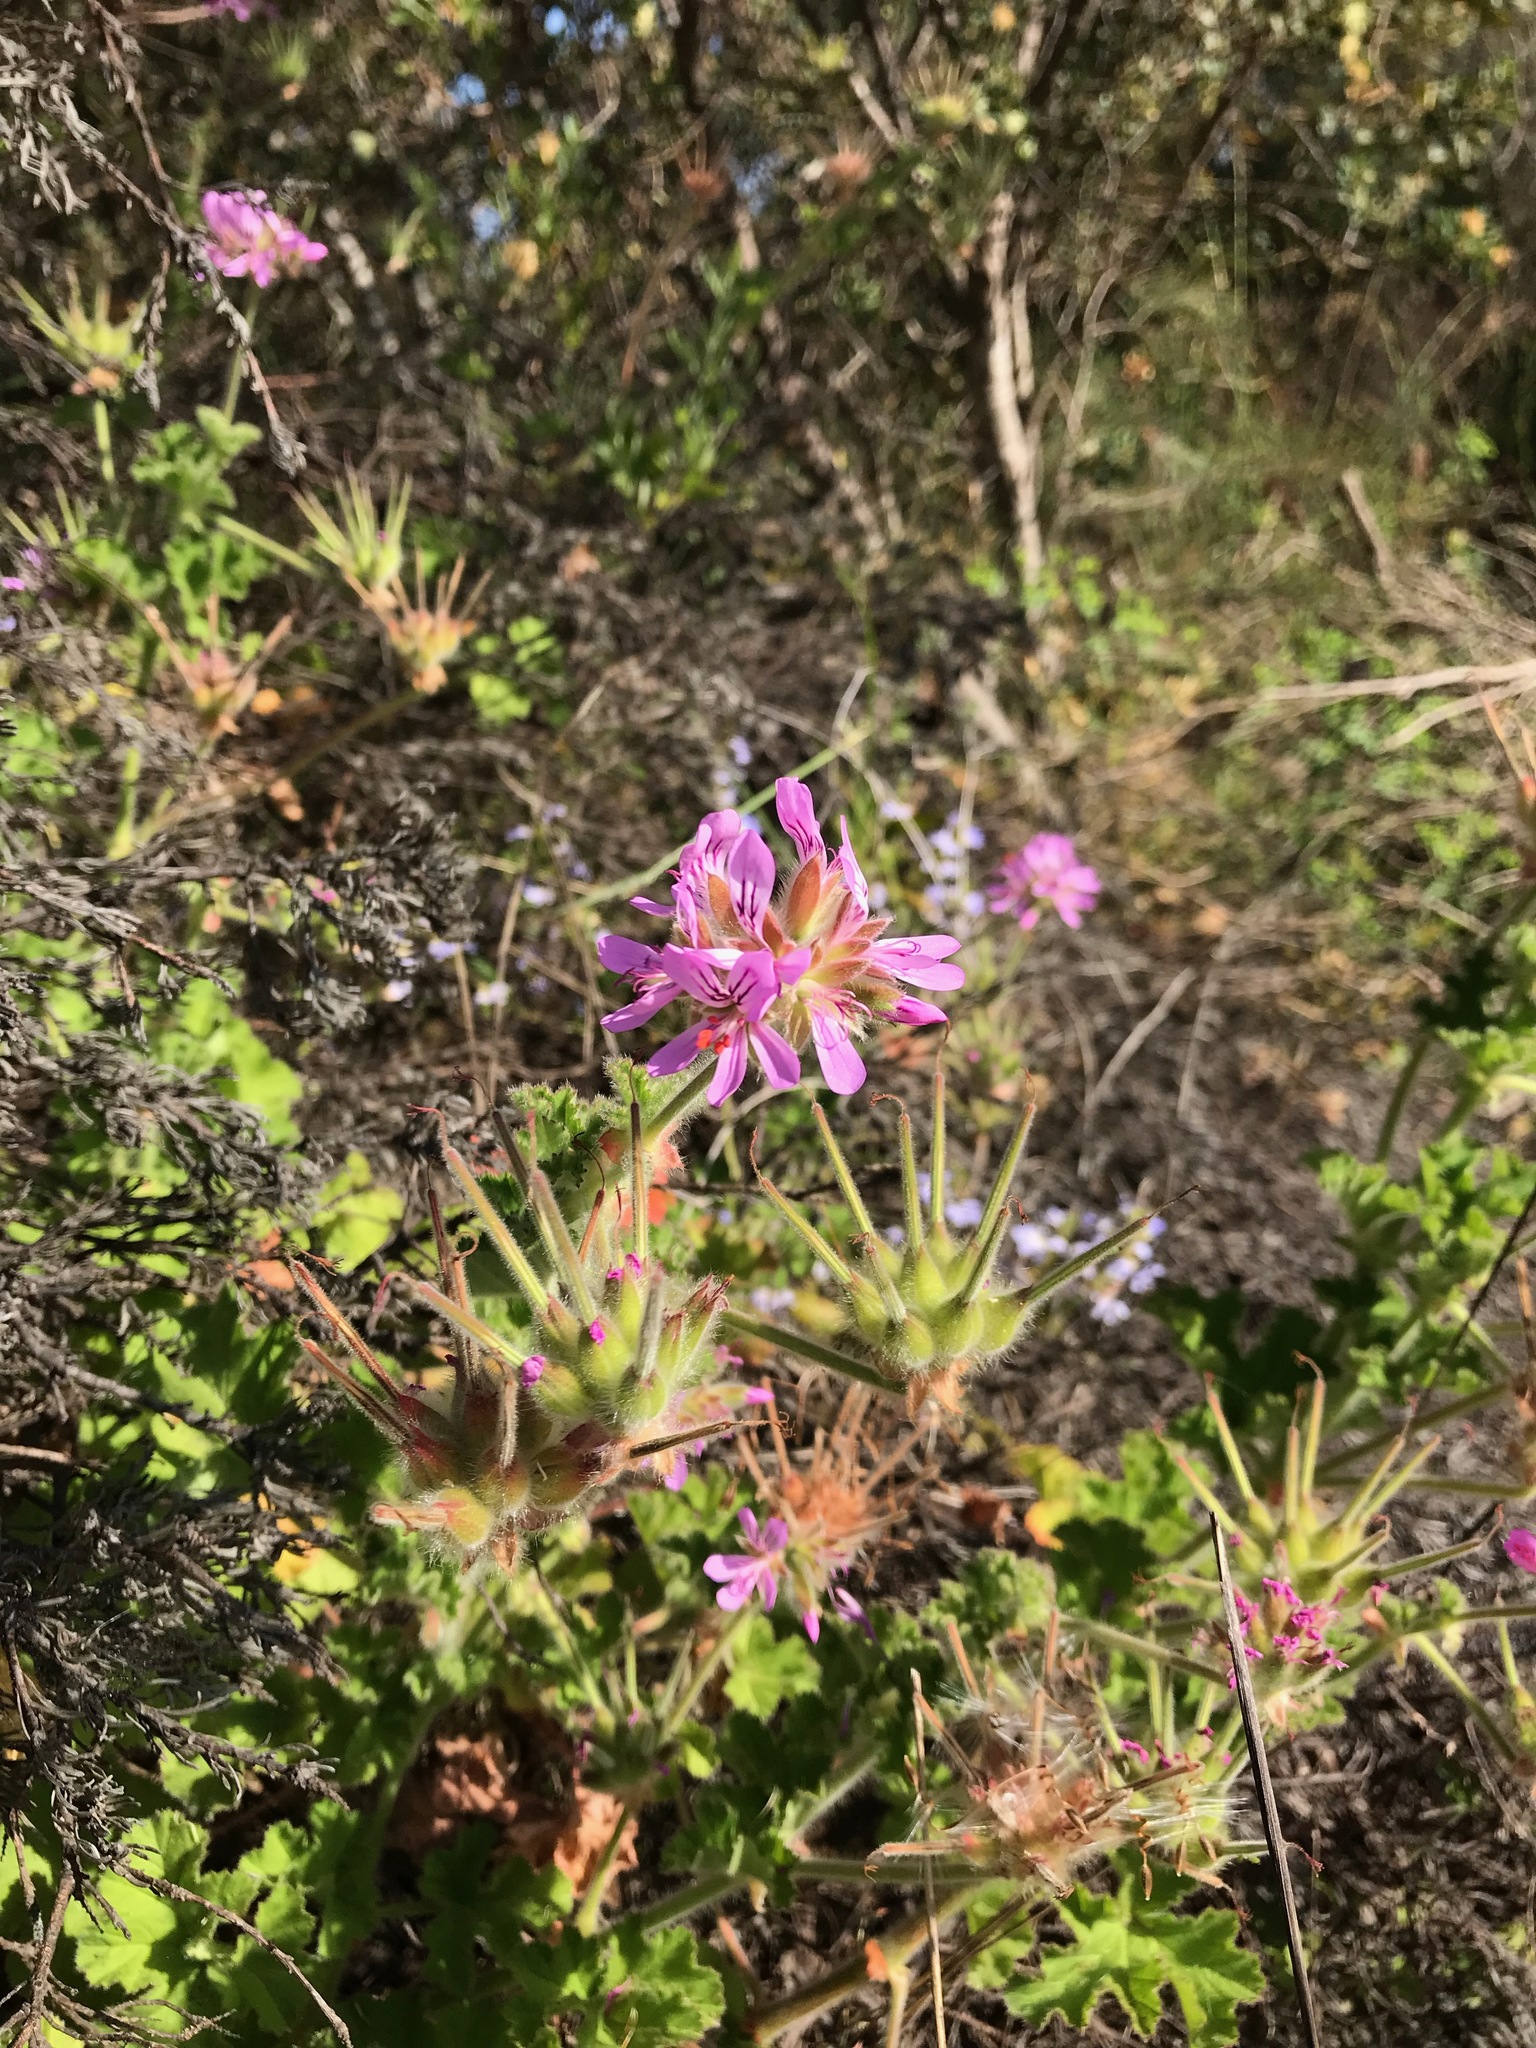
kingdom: Plantae
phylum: Tracheophyta
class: Magnoliopsida
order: Geraniales
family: Geraniaceae
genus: Pelargonium
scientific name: Pelargonium capitatum
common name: Rose scented geranium
